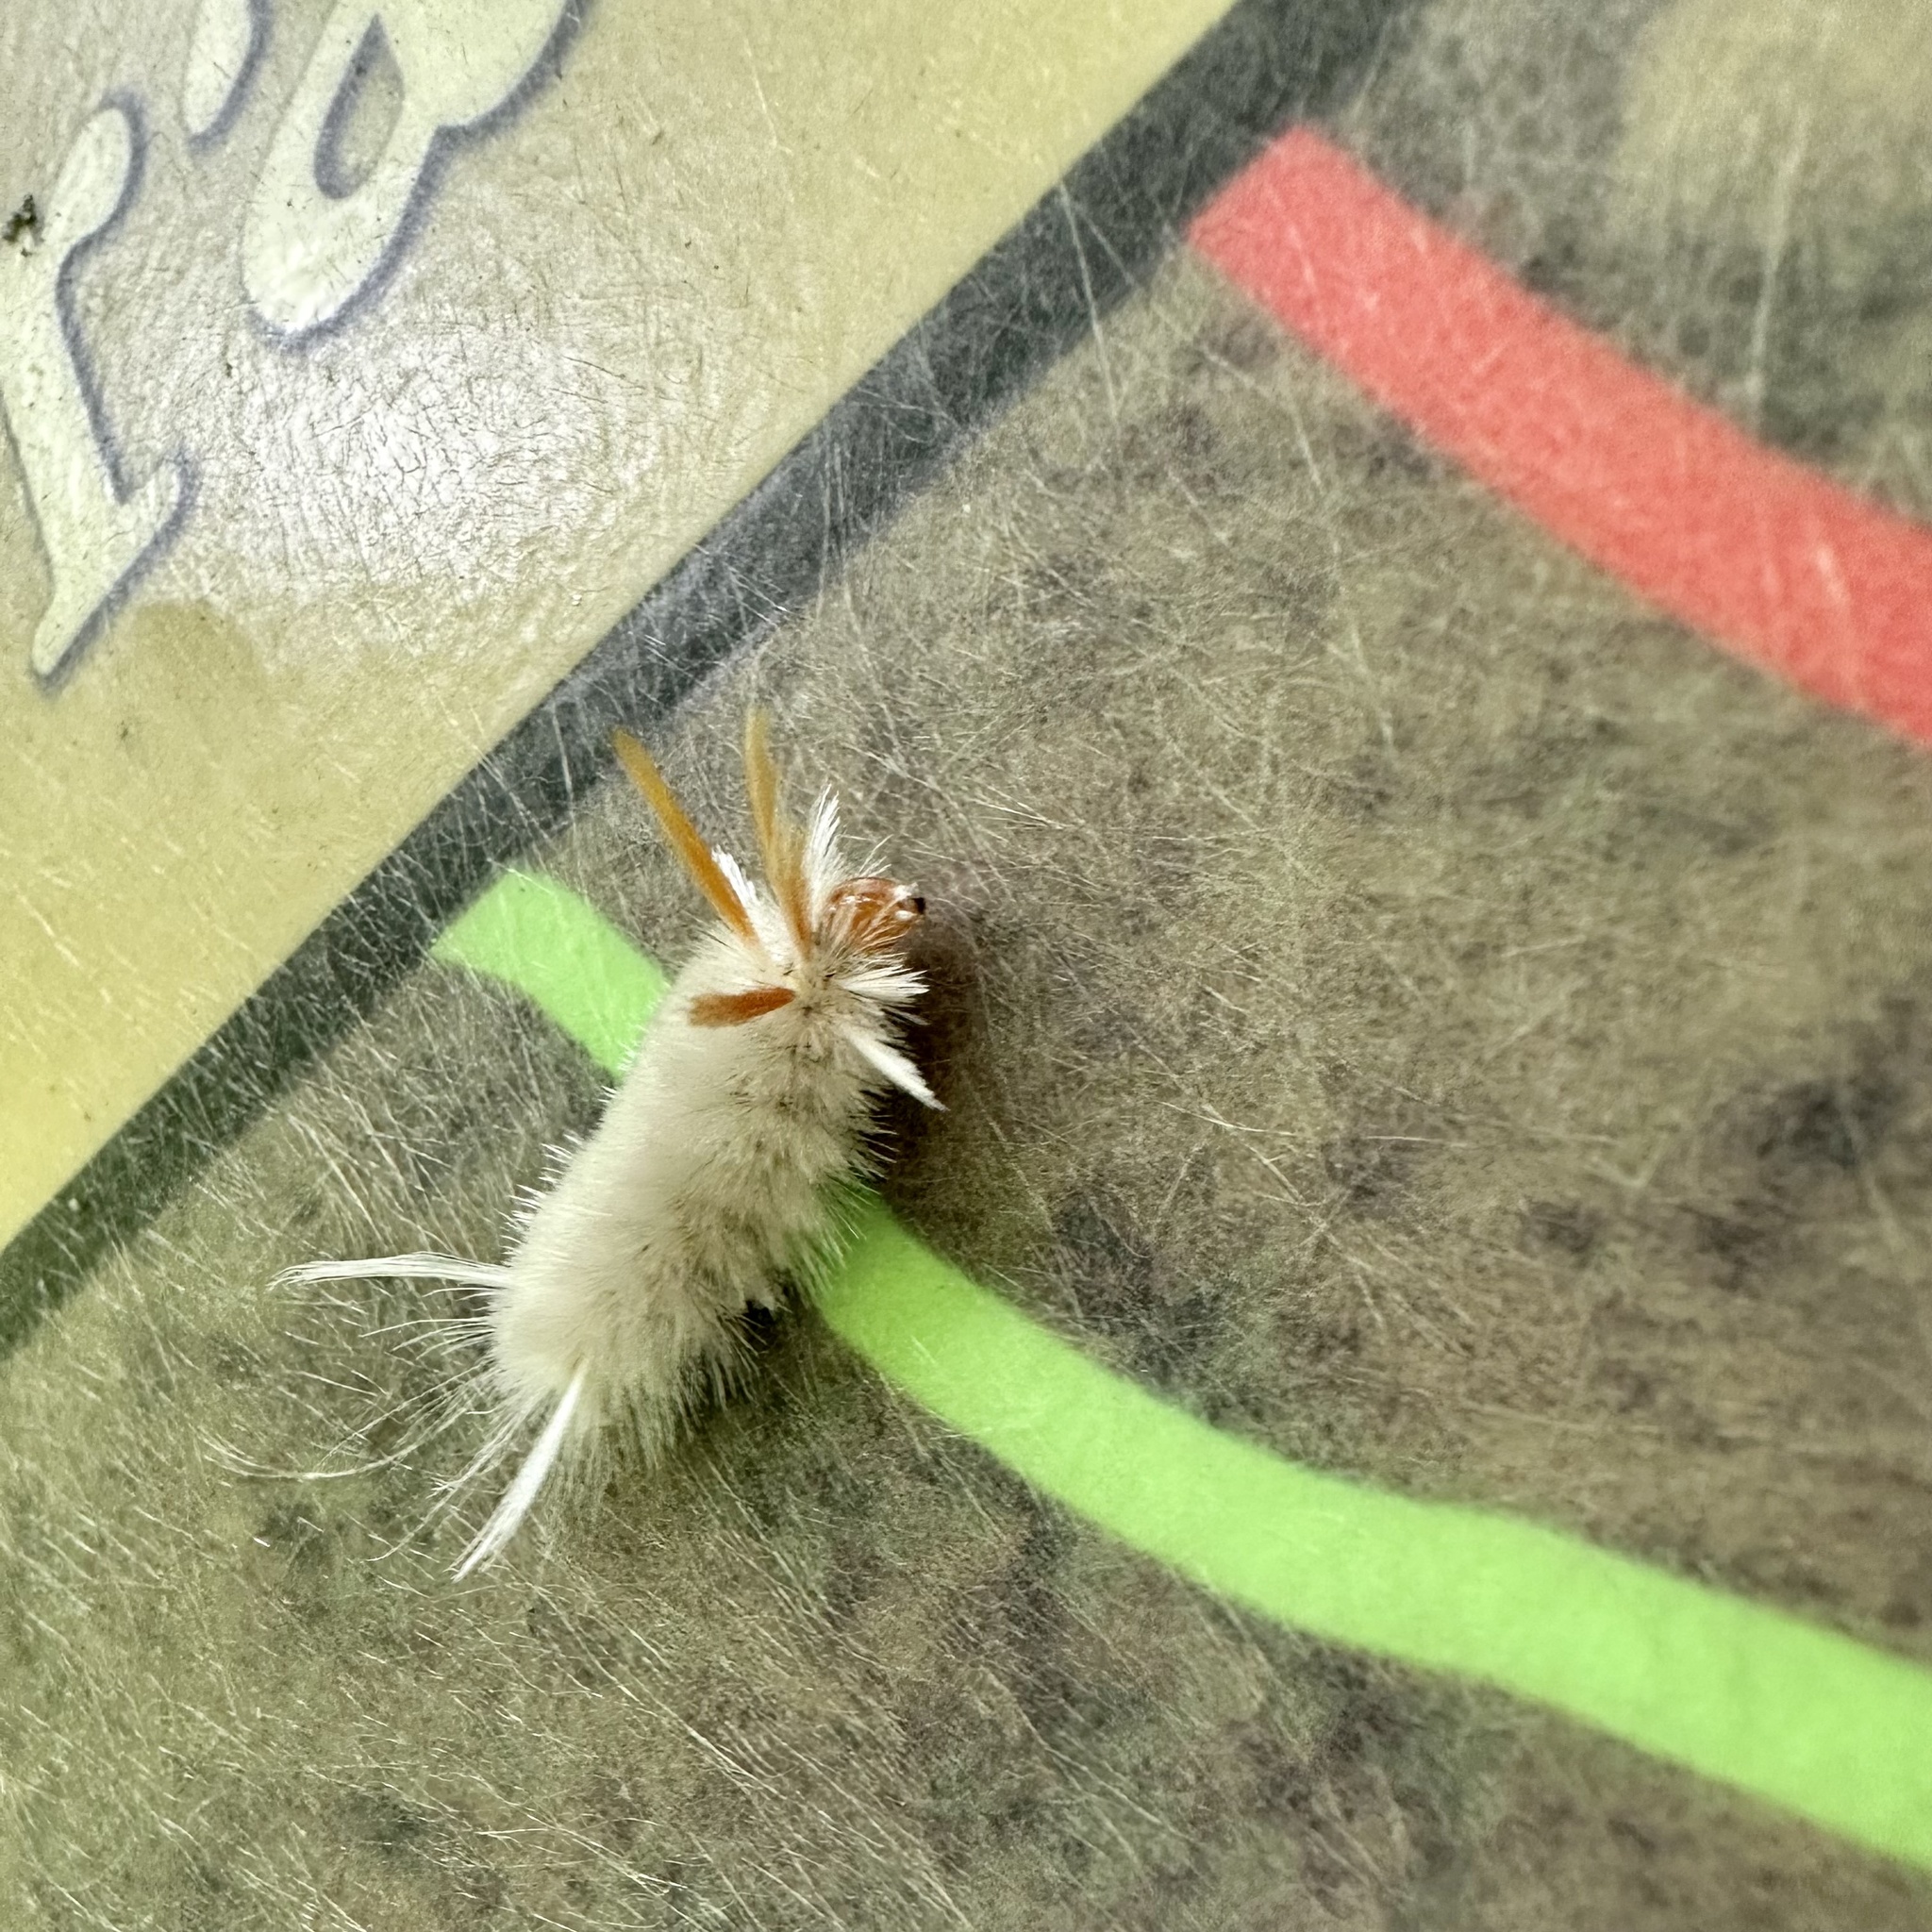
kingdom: Animalia
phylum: Arthropoda
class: Insecta
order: Lepidoptera
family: Erebidae
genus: Halysidota
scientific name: Halysidota harrisii
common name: Sycamore tussock moth
